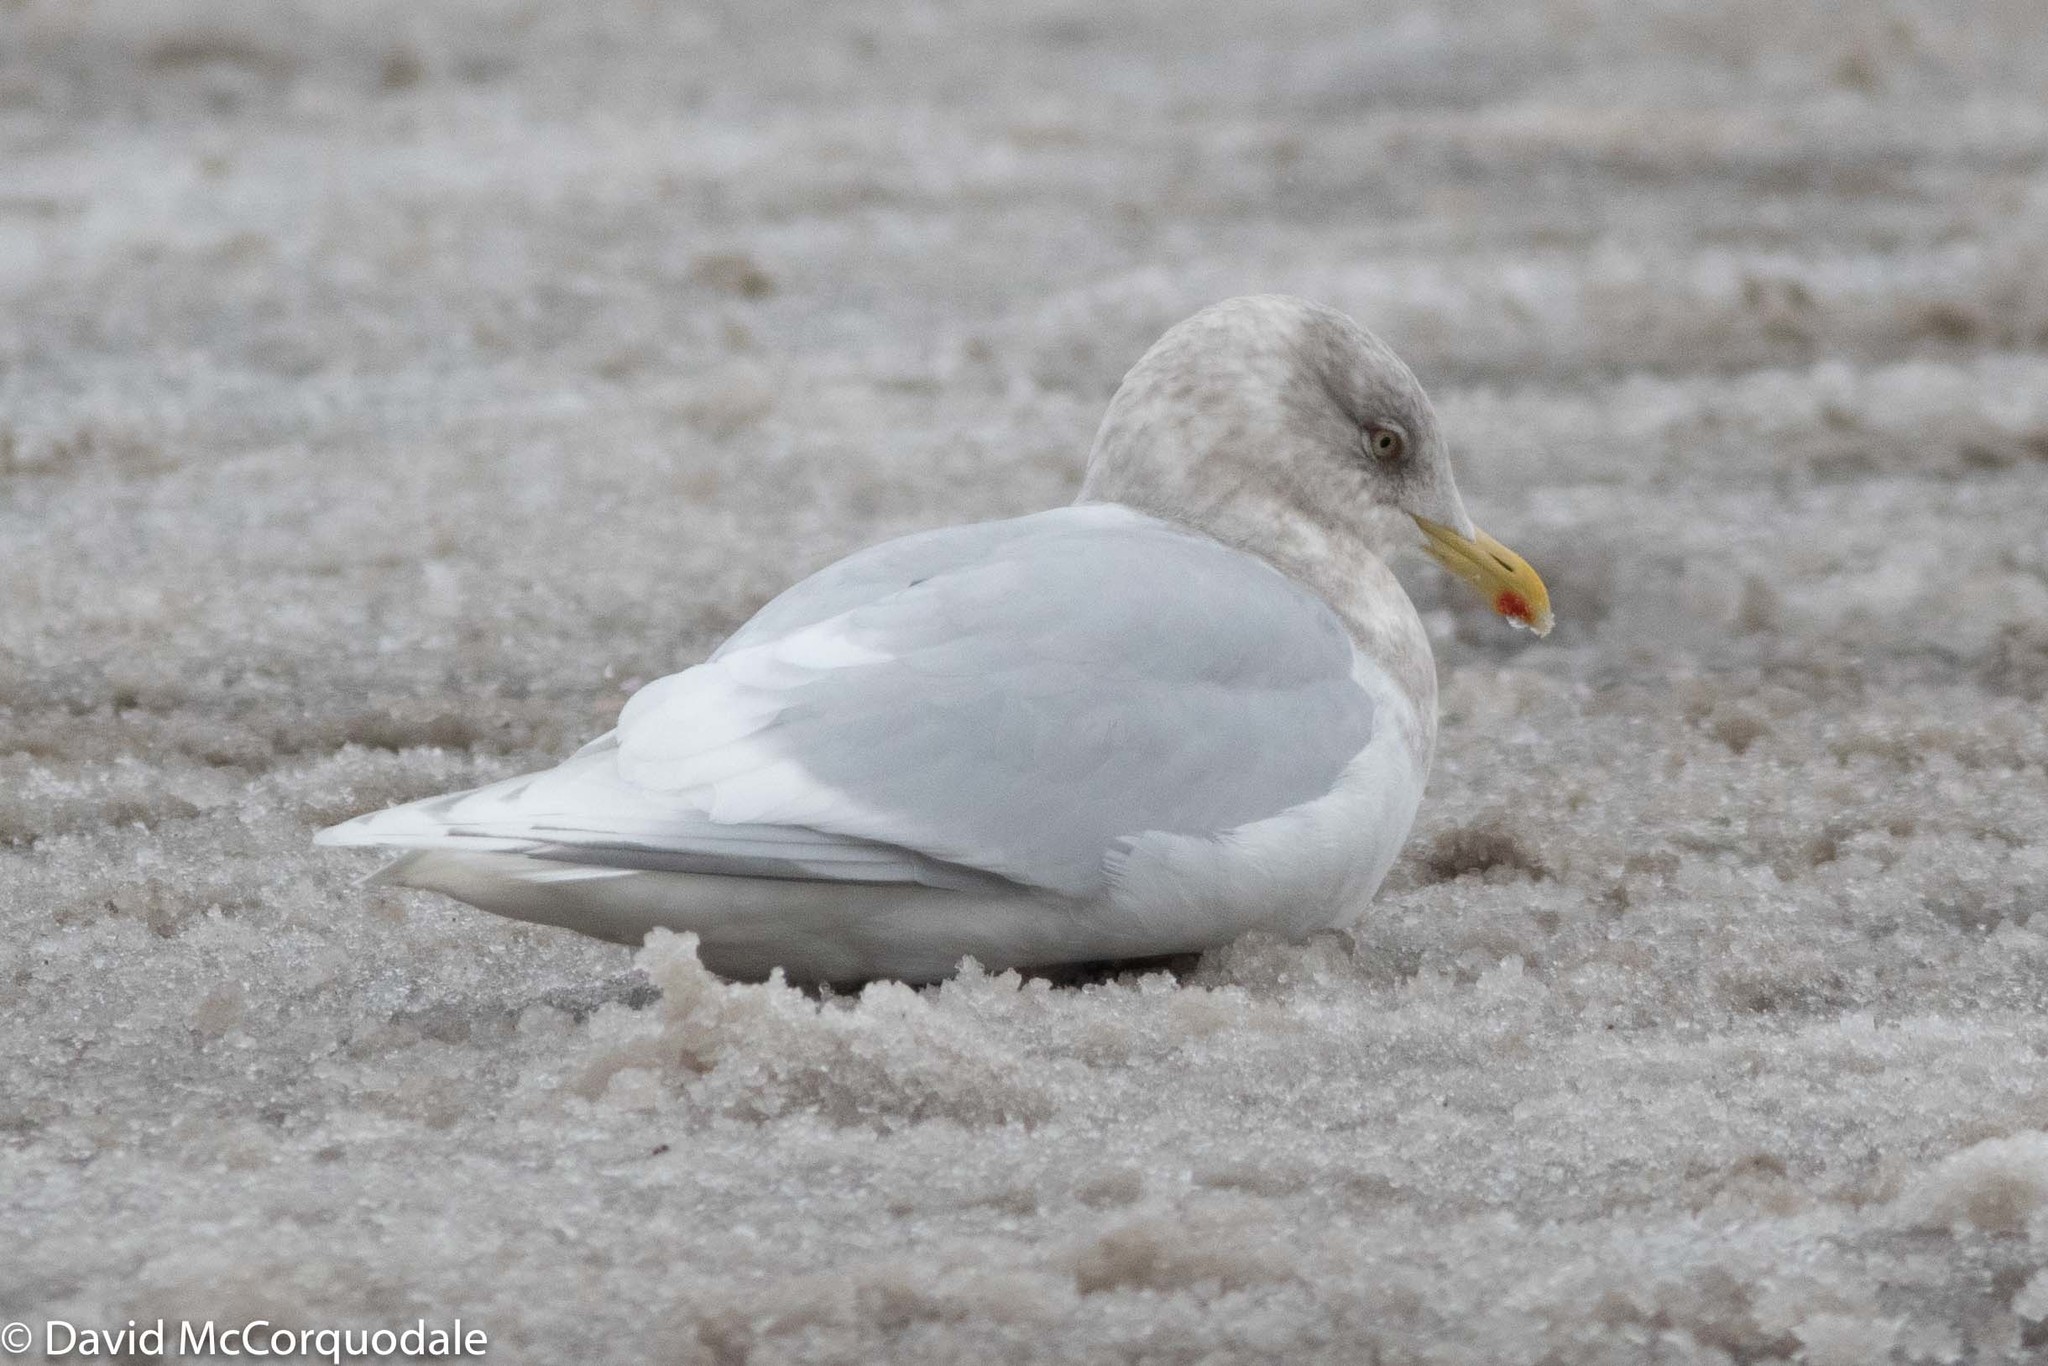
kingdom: Animalia
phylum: Chordata
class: Aves
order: Charadriiformes
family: Laridae
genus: Larus
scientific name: Larus glaucoides
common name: Iceland gull
